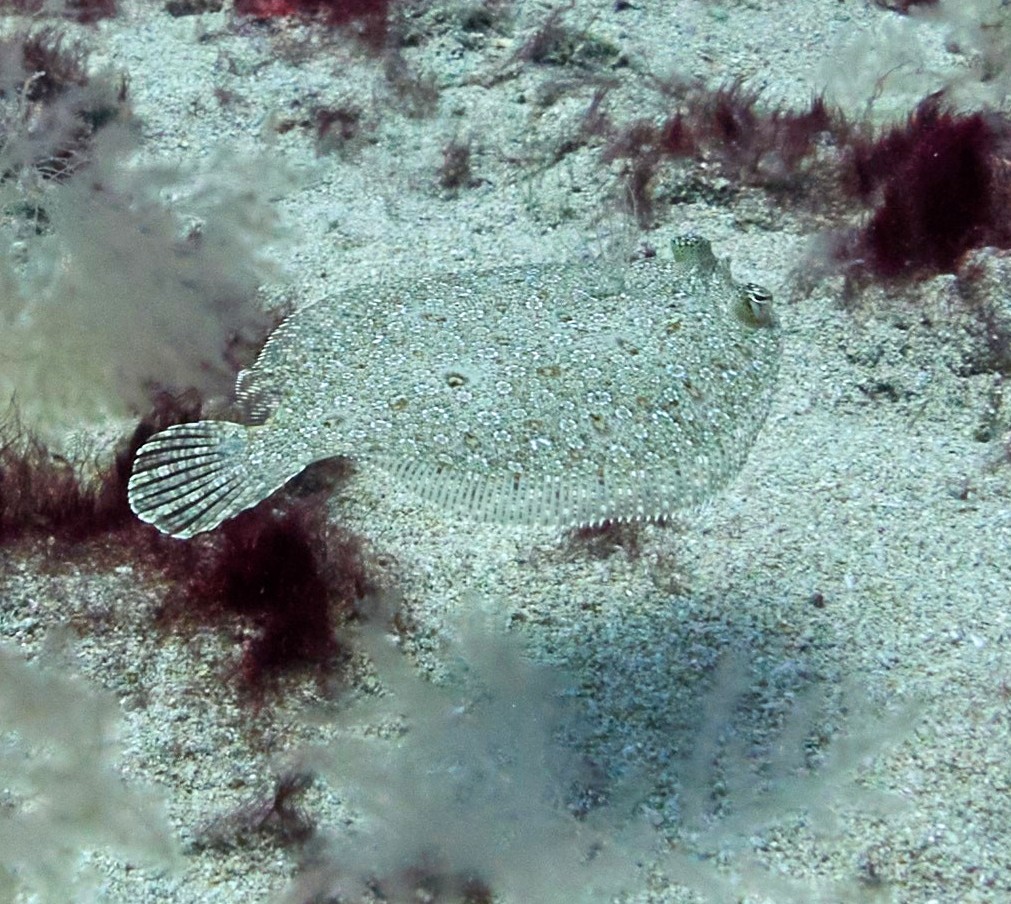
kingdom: Animalia
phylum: Chordata
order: Pleuronectiformes
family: Bothidae
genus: Bothus
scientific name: Bothus podas
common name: Wide-eyed flounder
